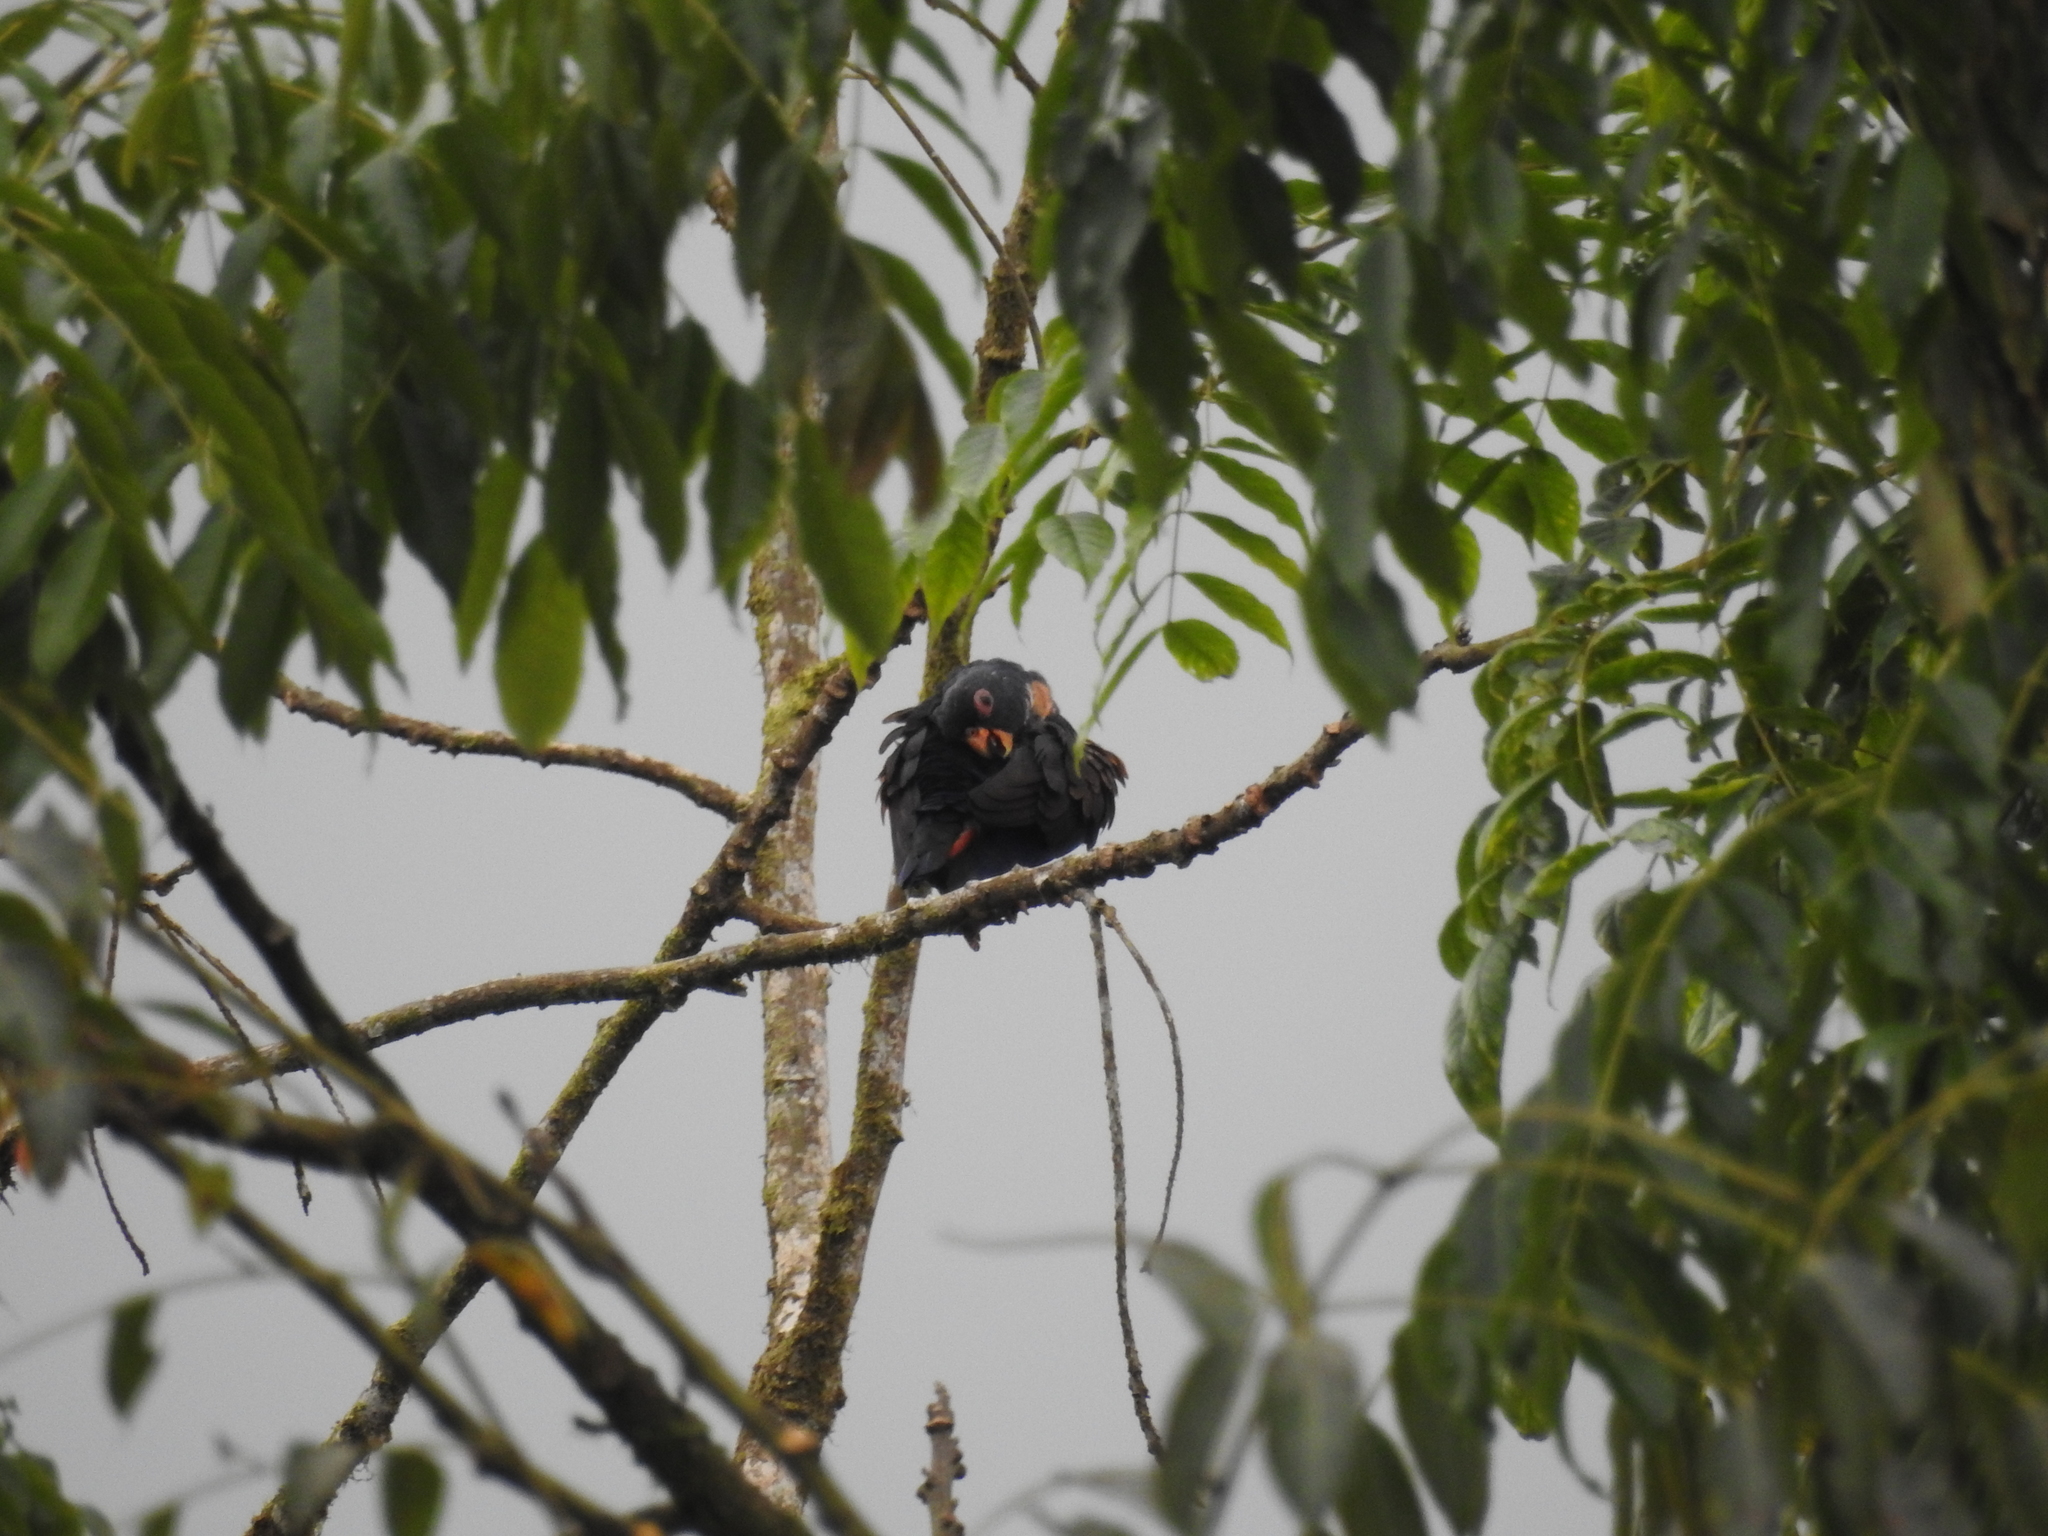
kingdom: Animalia
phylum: Chordata
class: Aves
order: Psittaciformes
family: Psittacidae
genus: Pionus
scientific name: Pionus chalcopterus
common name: Bronze-winged parrot
